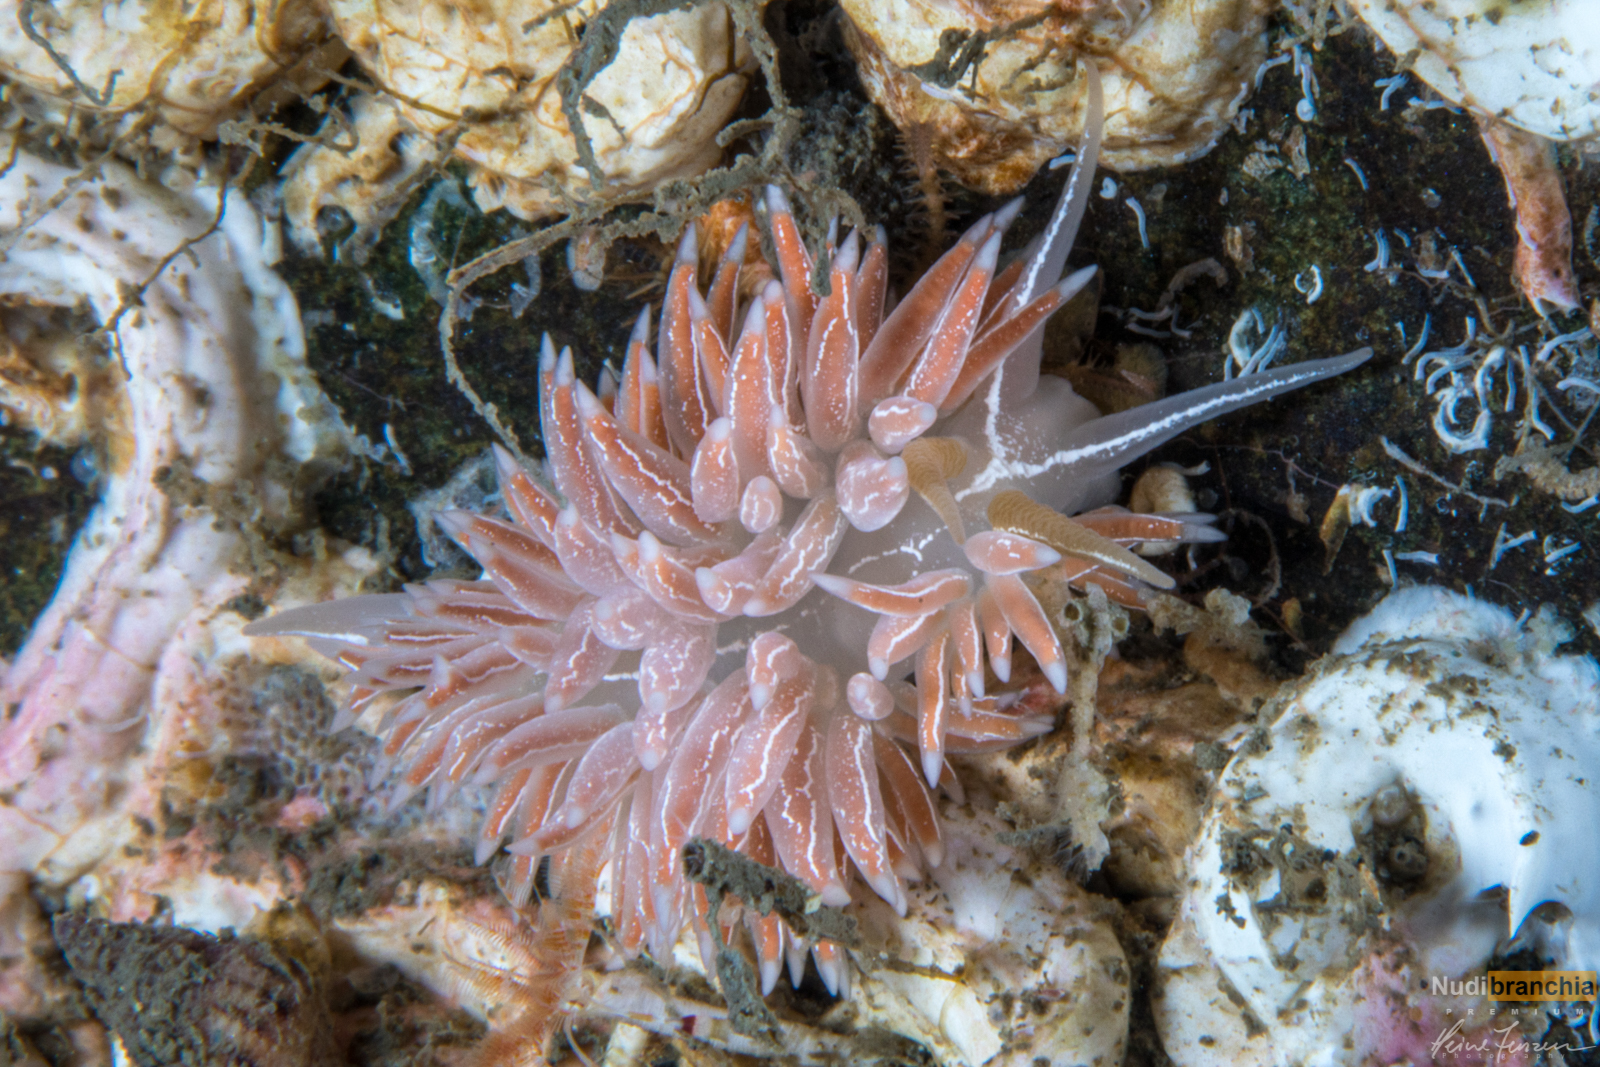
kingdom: Animalia
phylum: Mollusca
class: Gastropoda
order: Nudibranchia
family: Coryphellidae
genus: Coryphella
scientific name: Coryphella chriskaugei
